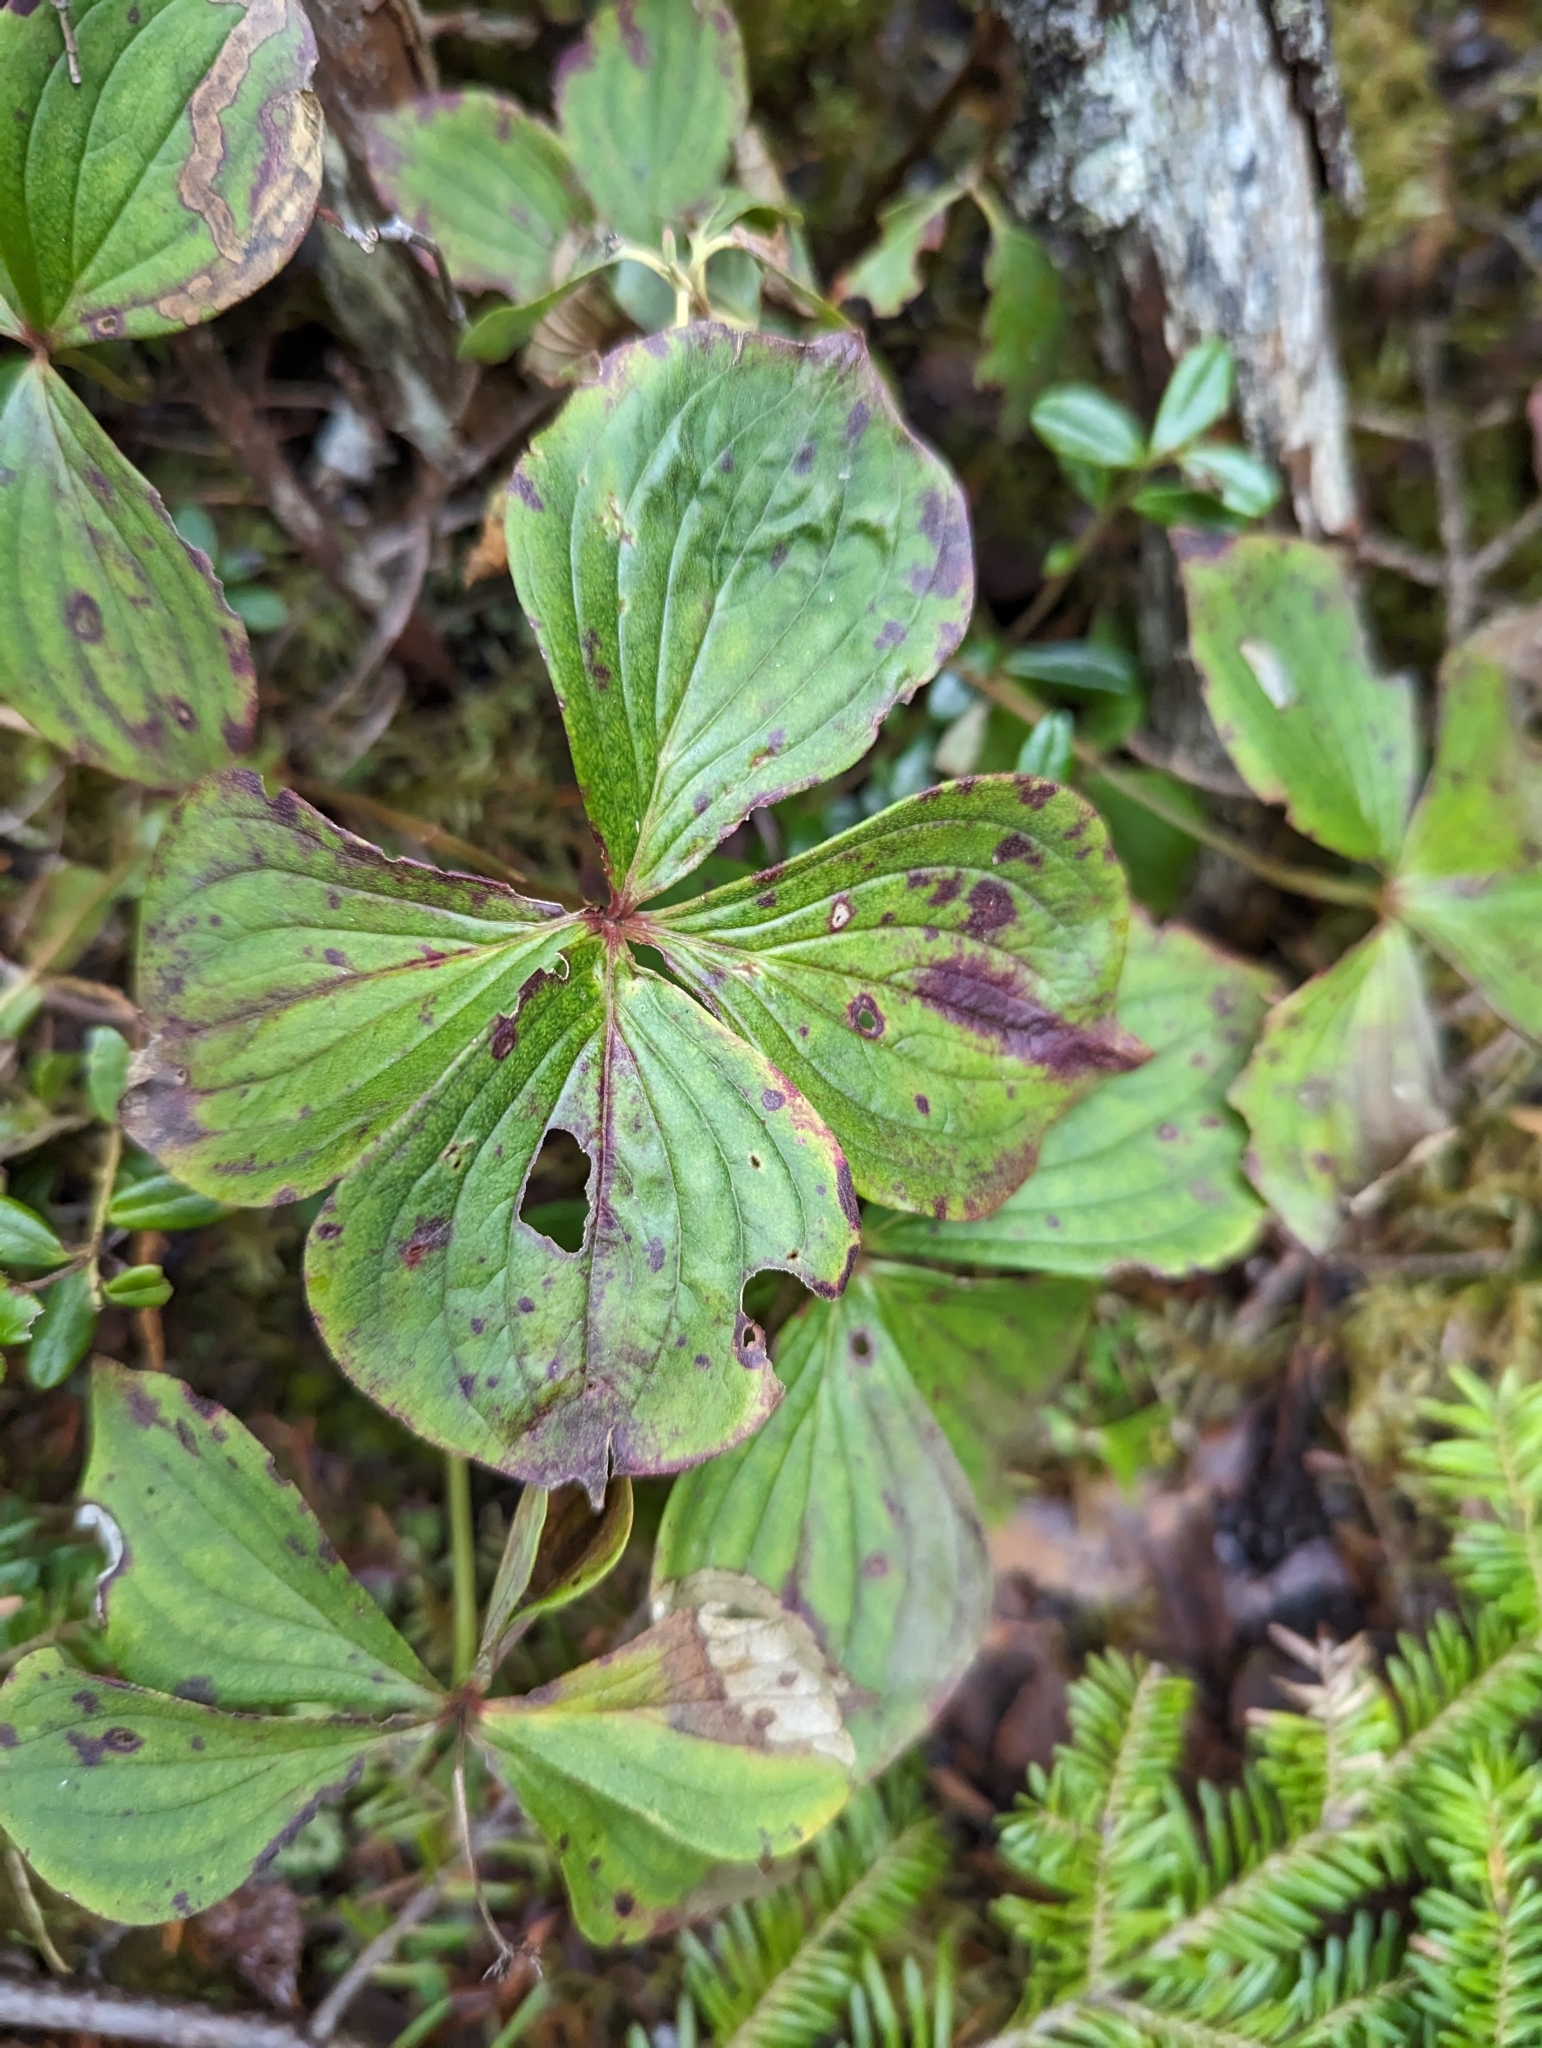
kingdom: Plantae
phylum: Tracheophyta
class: Magnoliopsida
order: Cornales
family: Cornaceae
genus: Cornus
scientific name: Cornus canadensis
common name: Creeping dogwood
